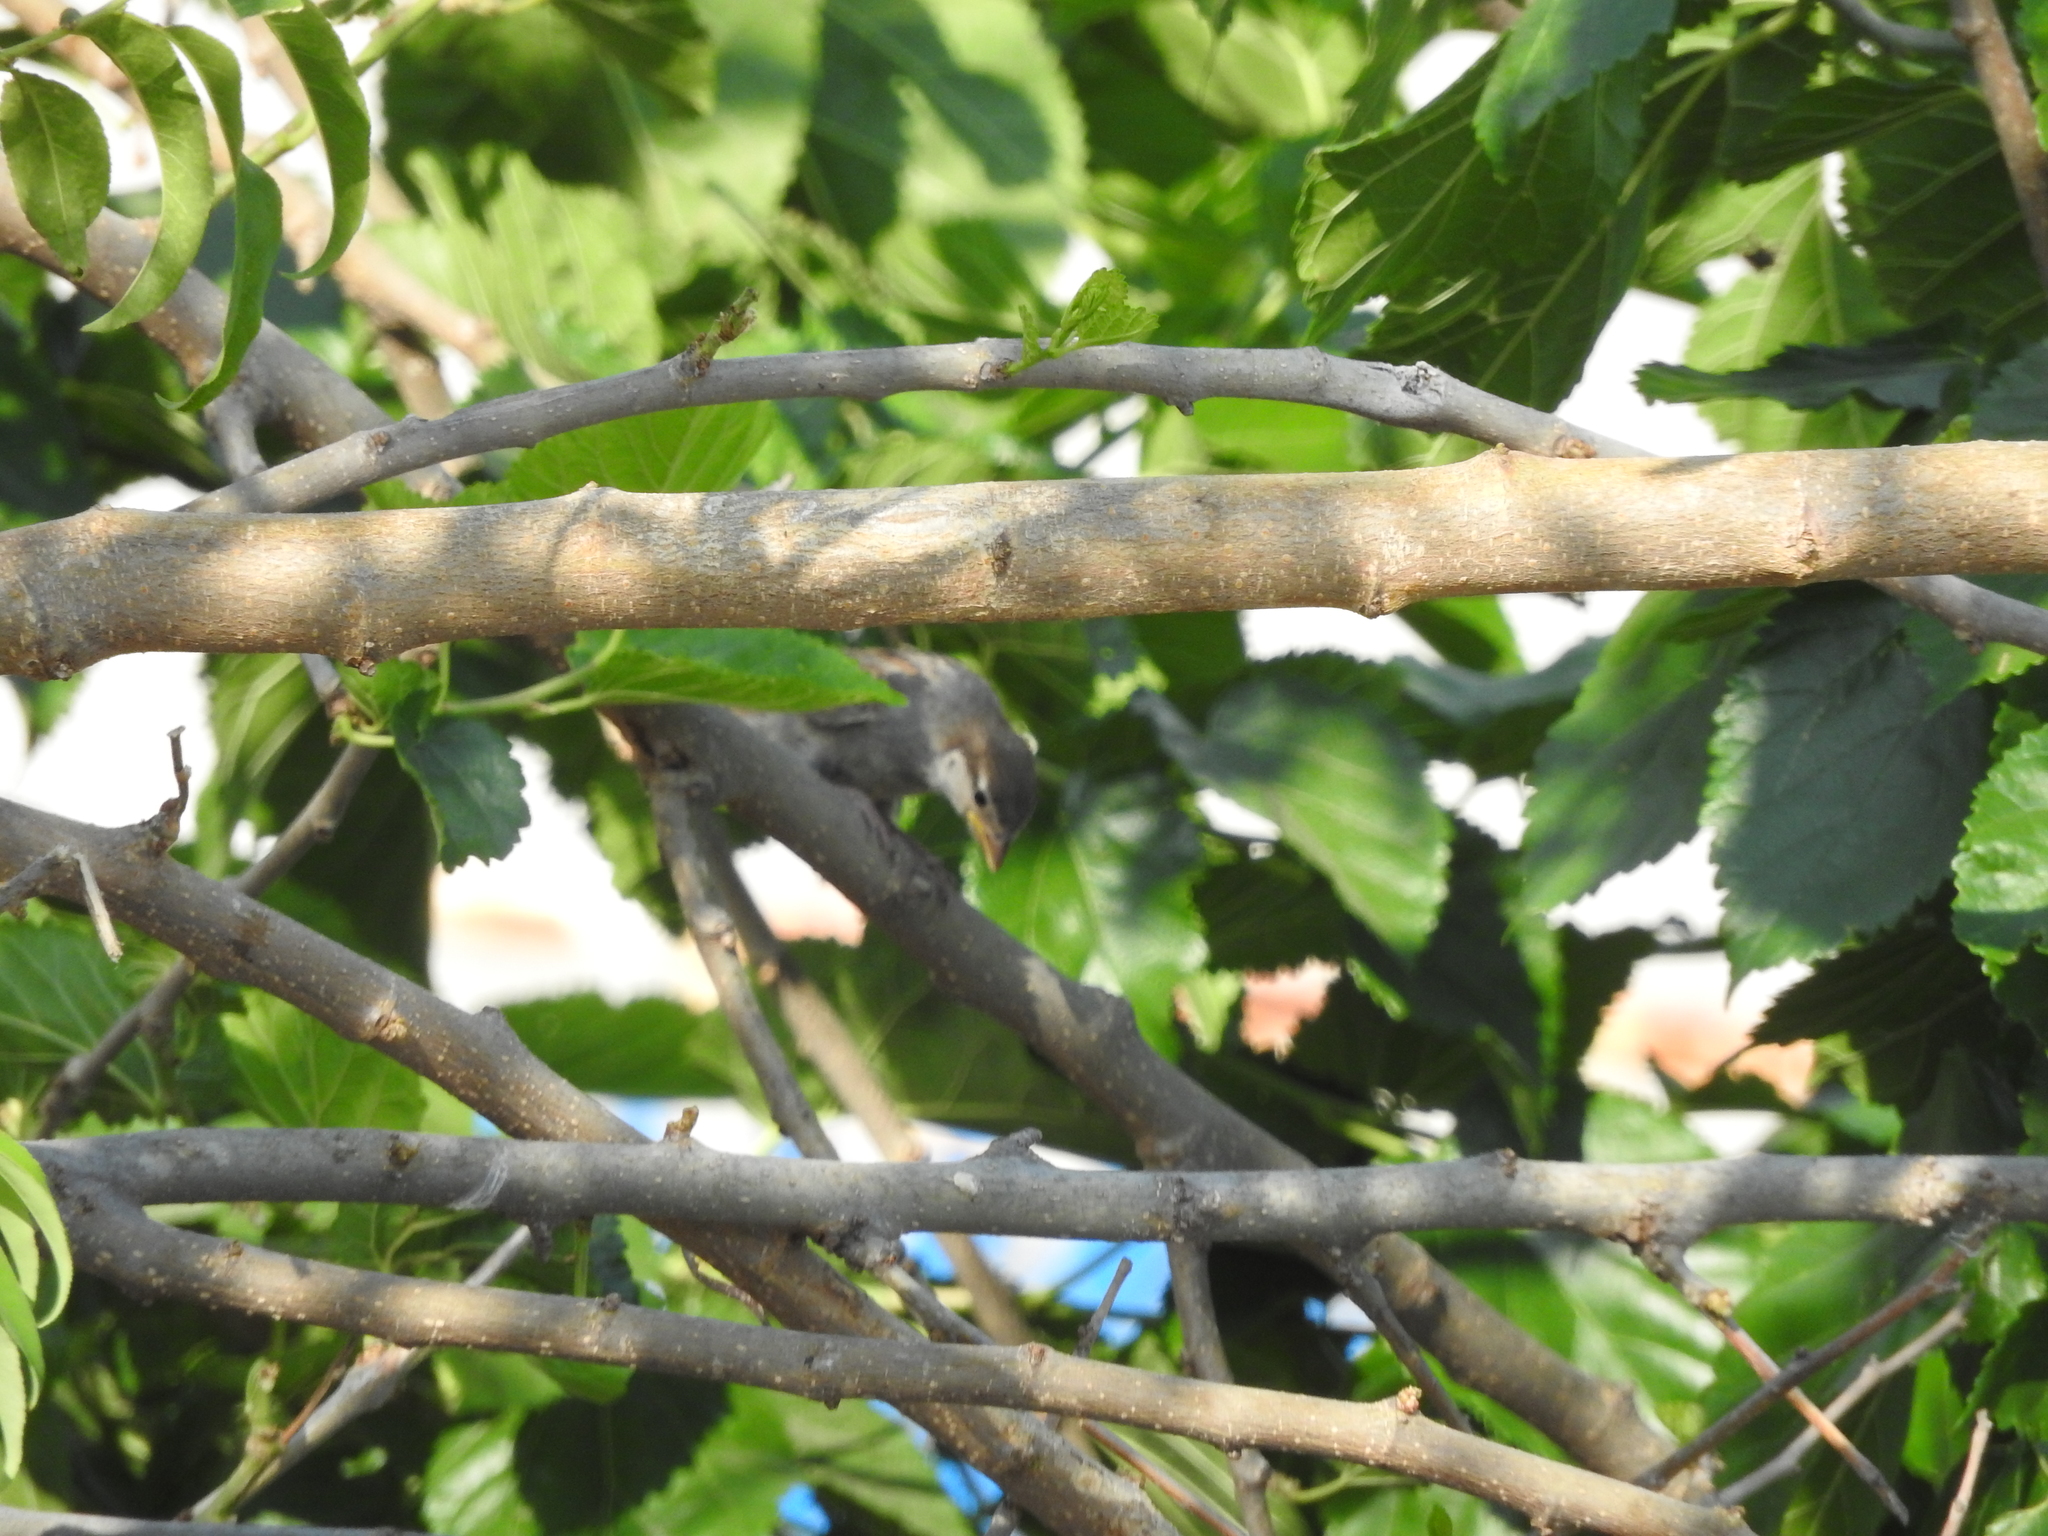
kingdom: Animalia
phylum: Chordata
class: Aves
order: Passeriformes
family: Passeridae
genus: Passer
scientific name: Passer domesticus
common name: House sparrow
